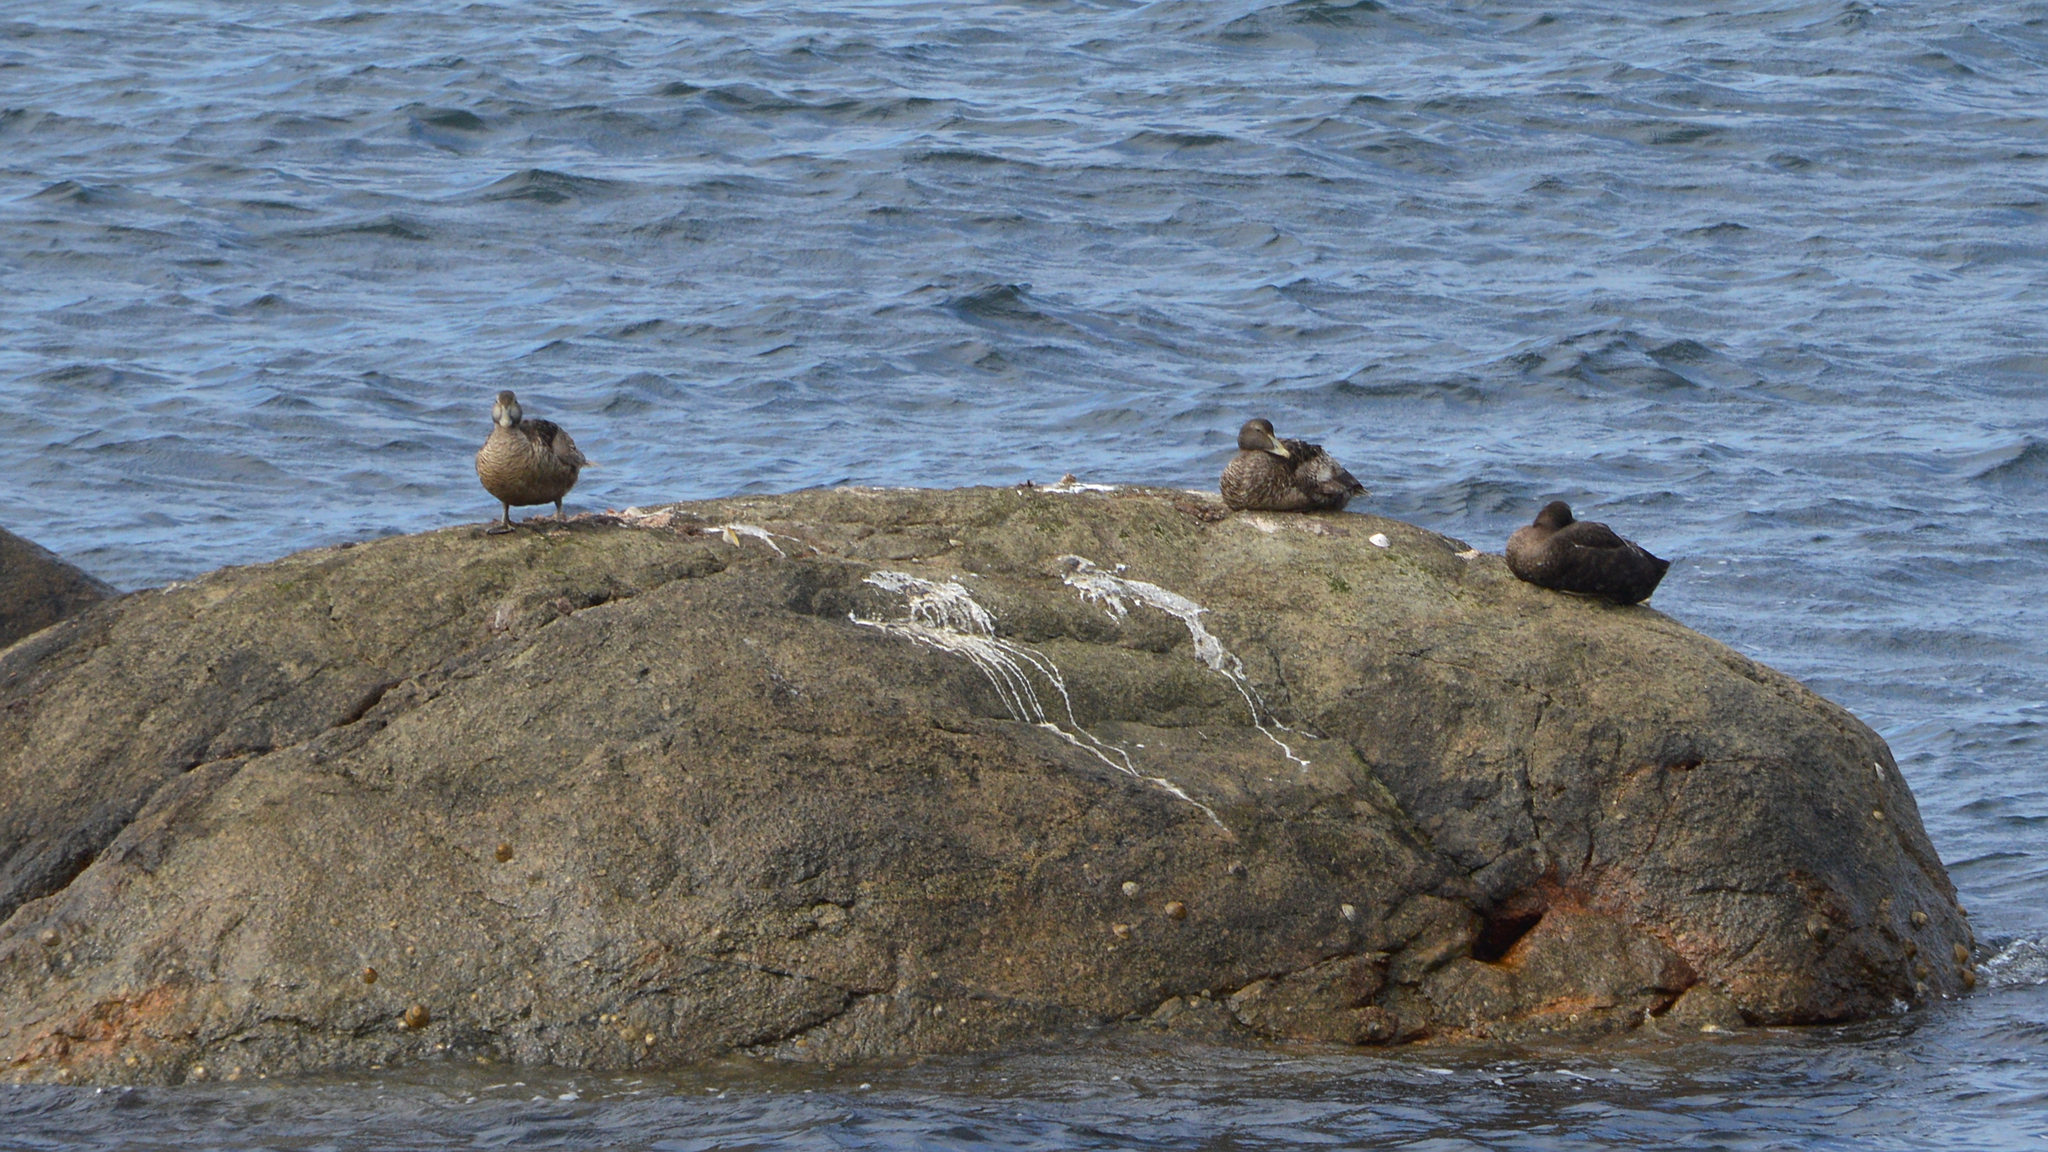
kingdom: Animalia
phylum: Chordata
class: Aves
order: Anseriformes
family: Anatidae
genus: Somateria
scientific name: Somateria mollissima
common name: Common eider
